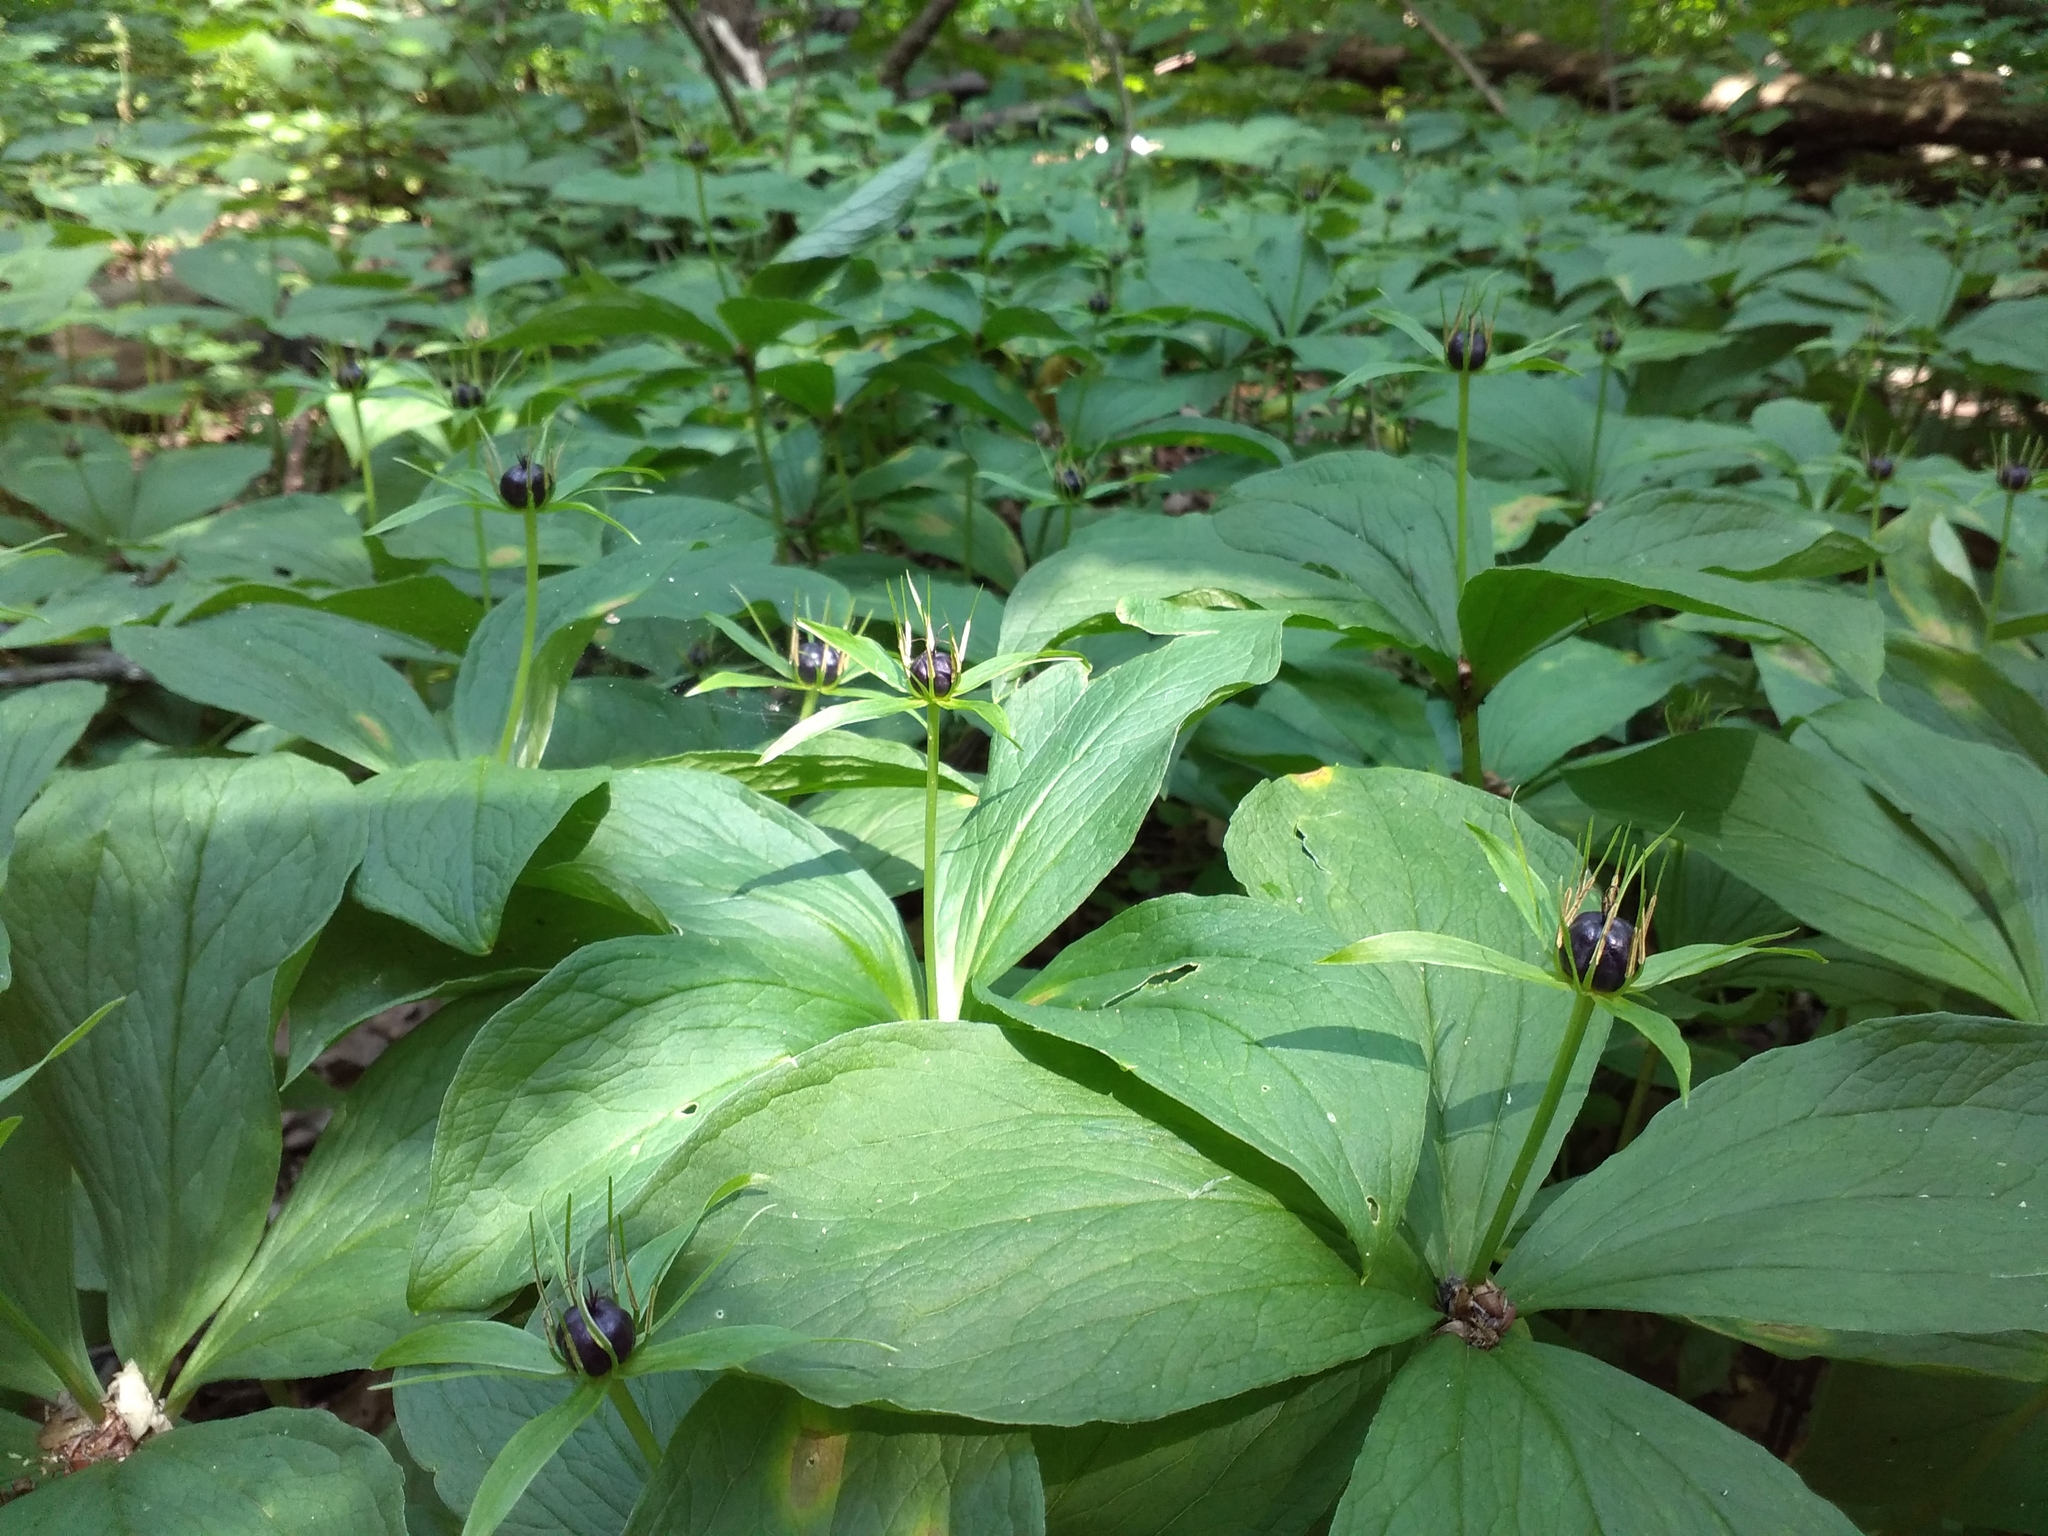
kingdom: Plantae
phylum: Tracheophyta
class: Liliopsida
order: Liliales
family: Melanthiaceae
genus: Paris
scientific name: Paris quadrifolia
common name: Herb-paris
